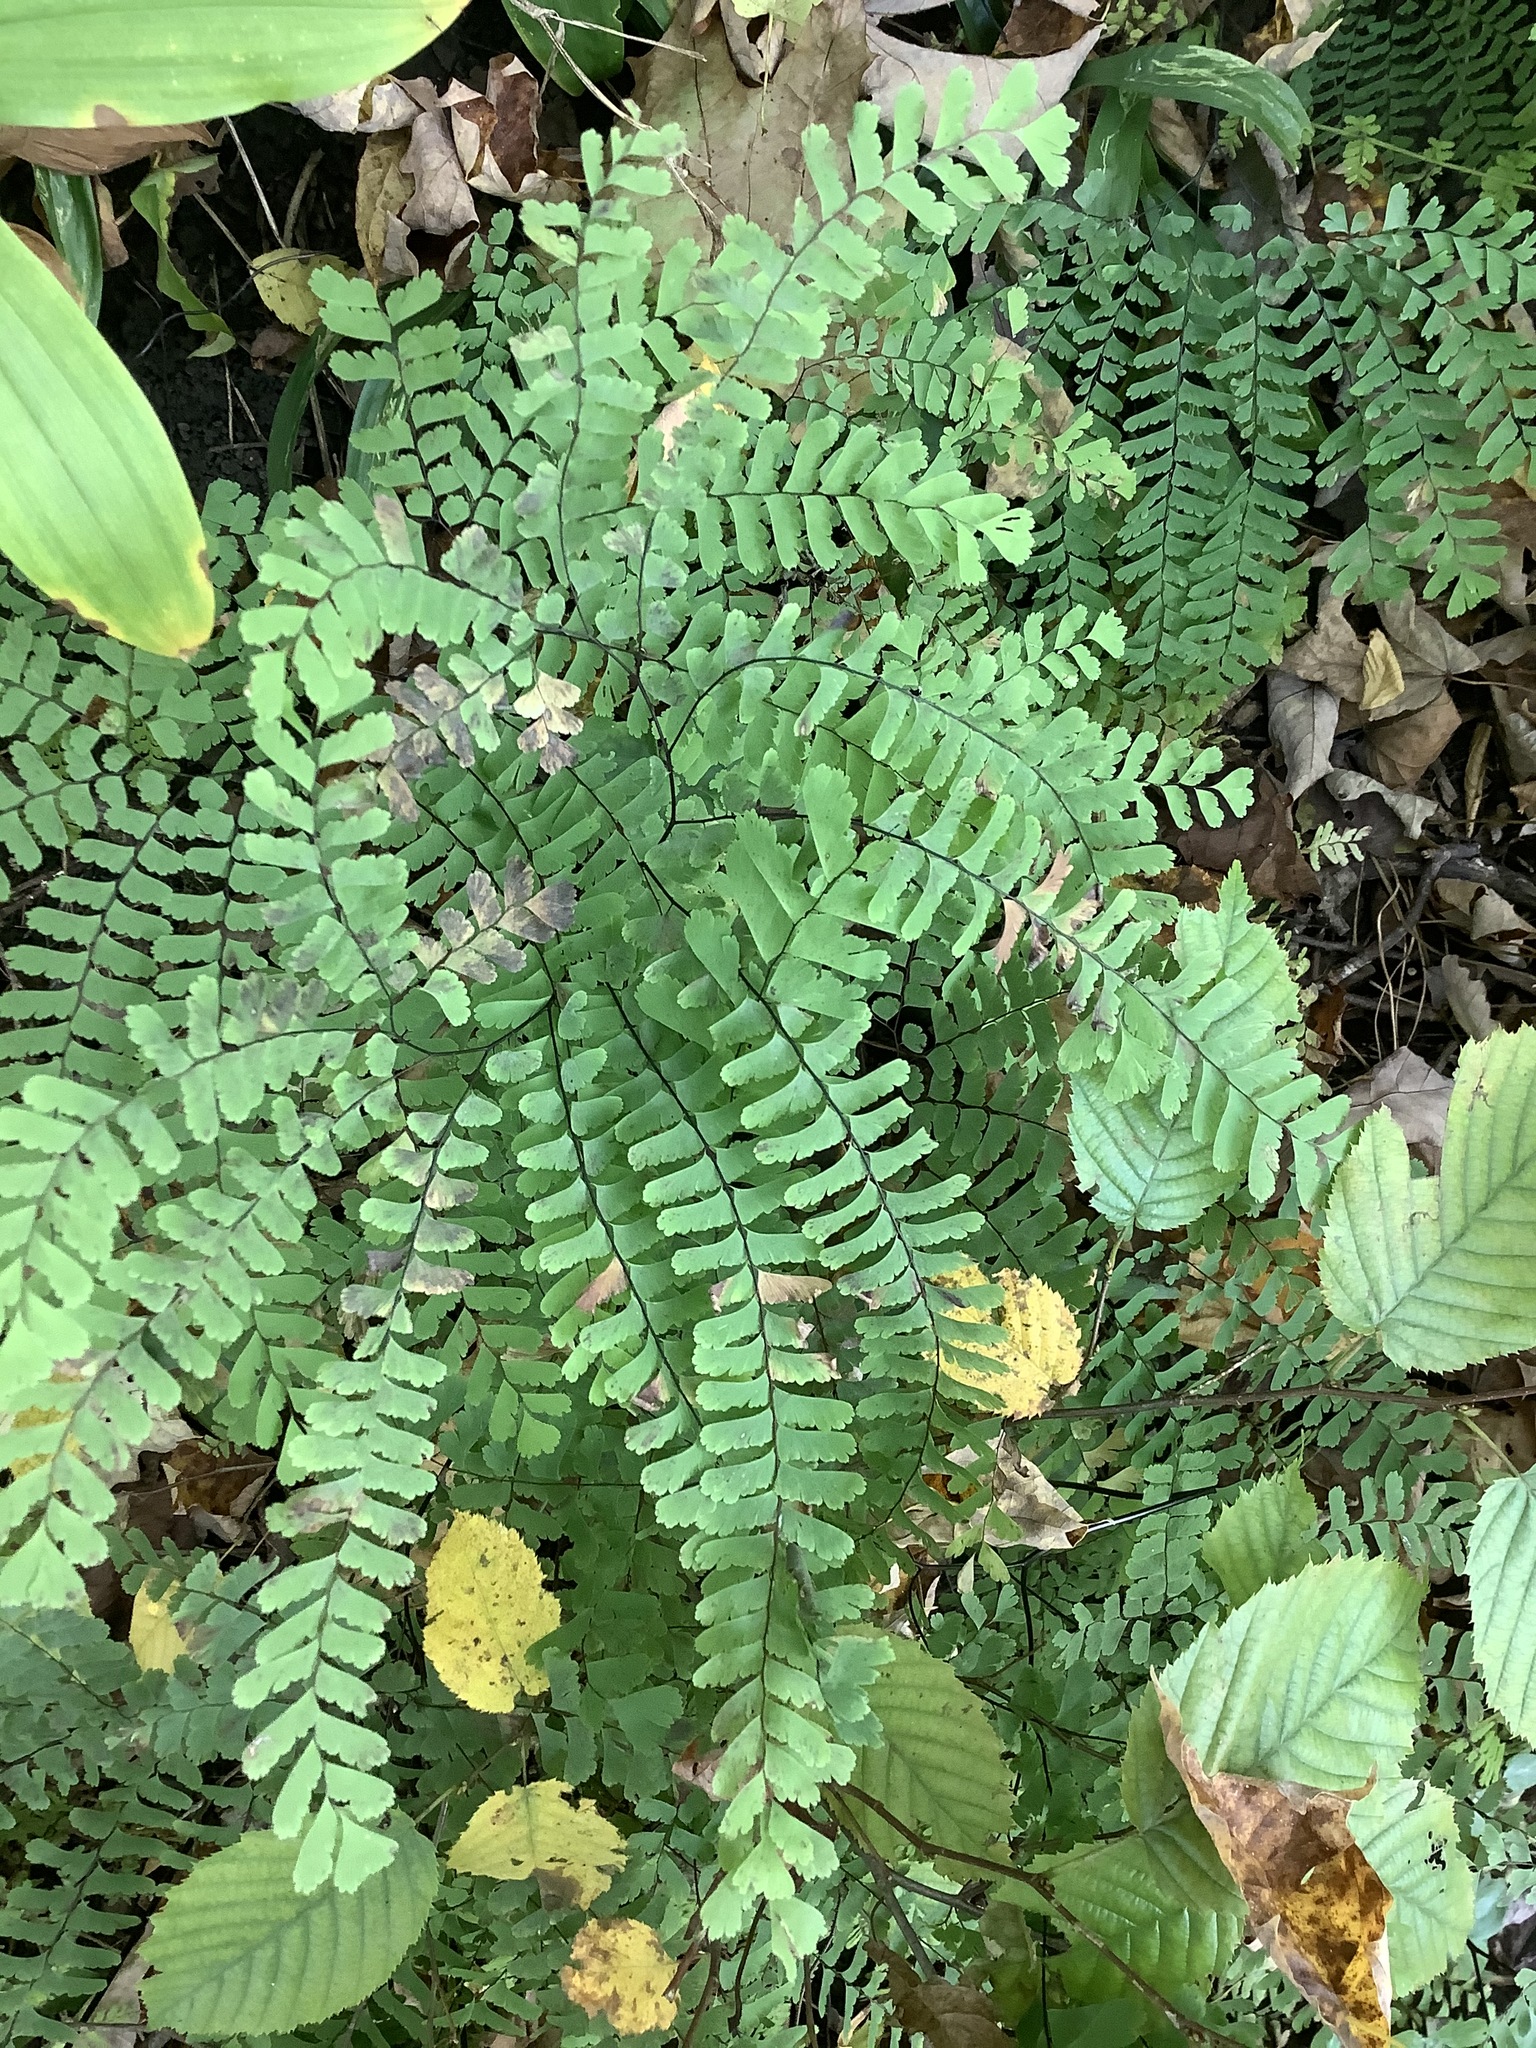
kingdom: Plantae
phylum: Tracheophyta
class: Polypodiopsida
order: Polypodiales
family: Pteridaceae
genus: Adiantum
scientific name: Adiantum pedatum
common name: Five-finger fern
